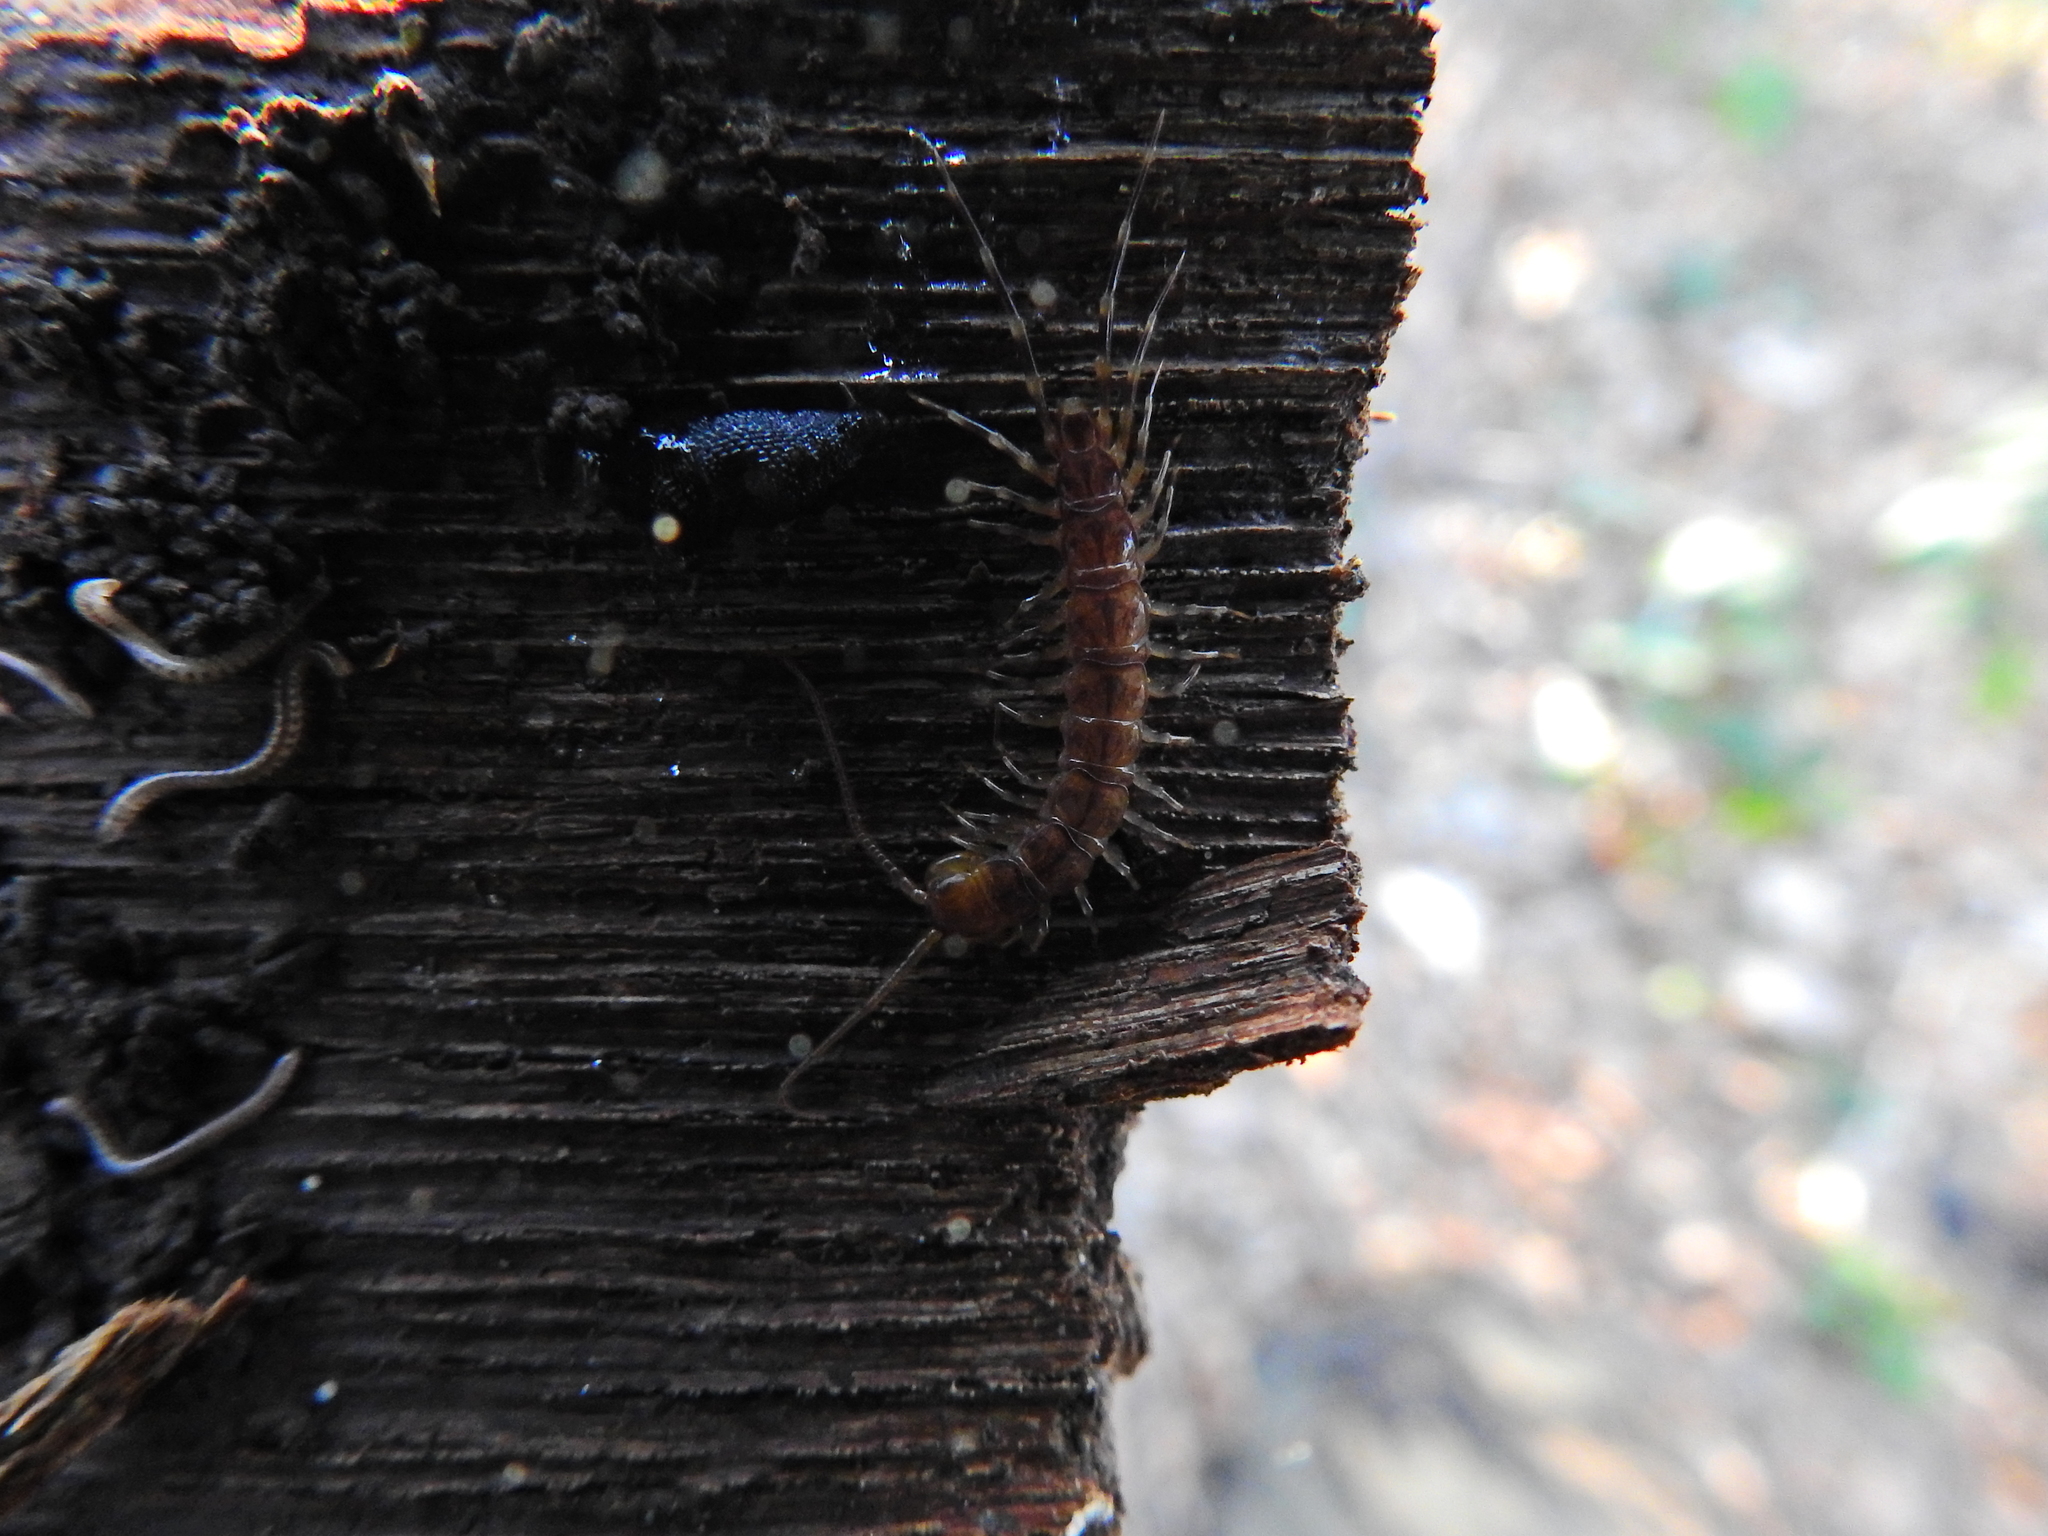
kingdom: Animalia
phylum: Arthropoda
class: Chilopoda
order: Lithobiomorpha
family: Lithobiidae
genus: Lithobius
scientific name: Lithobius variegatus
